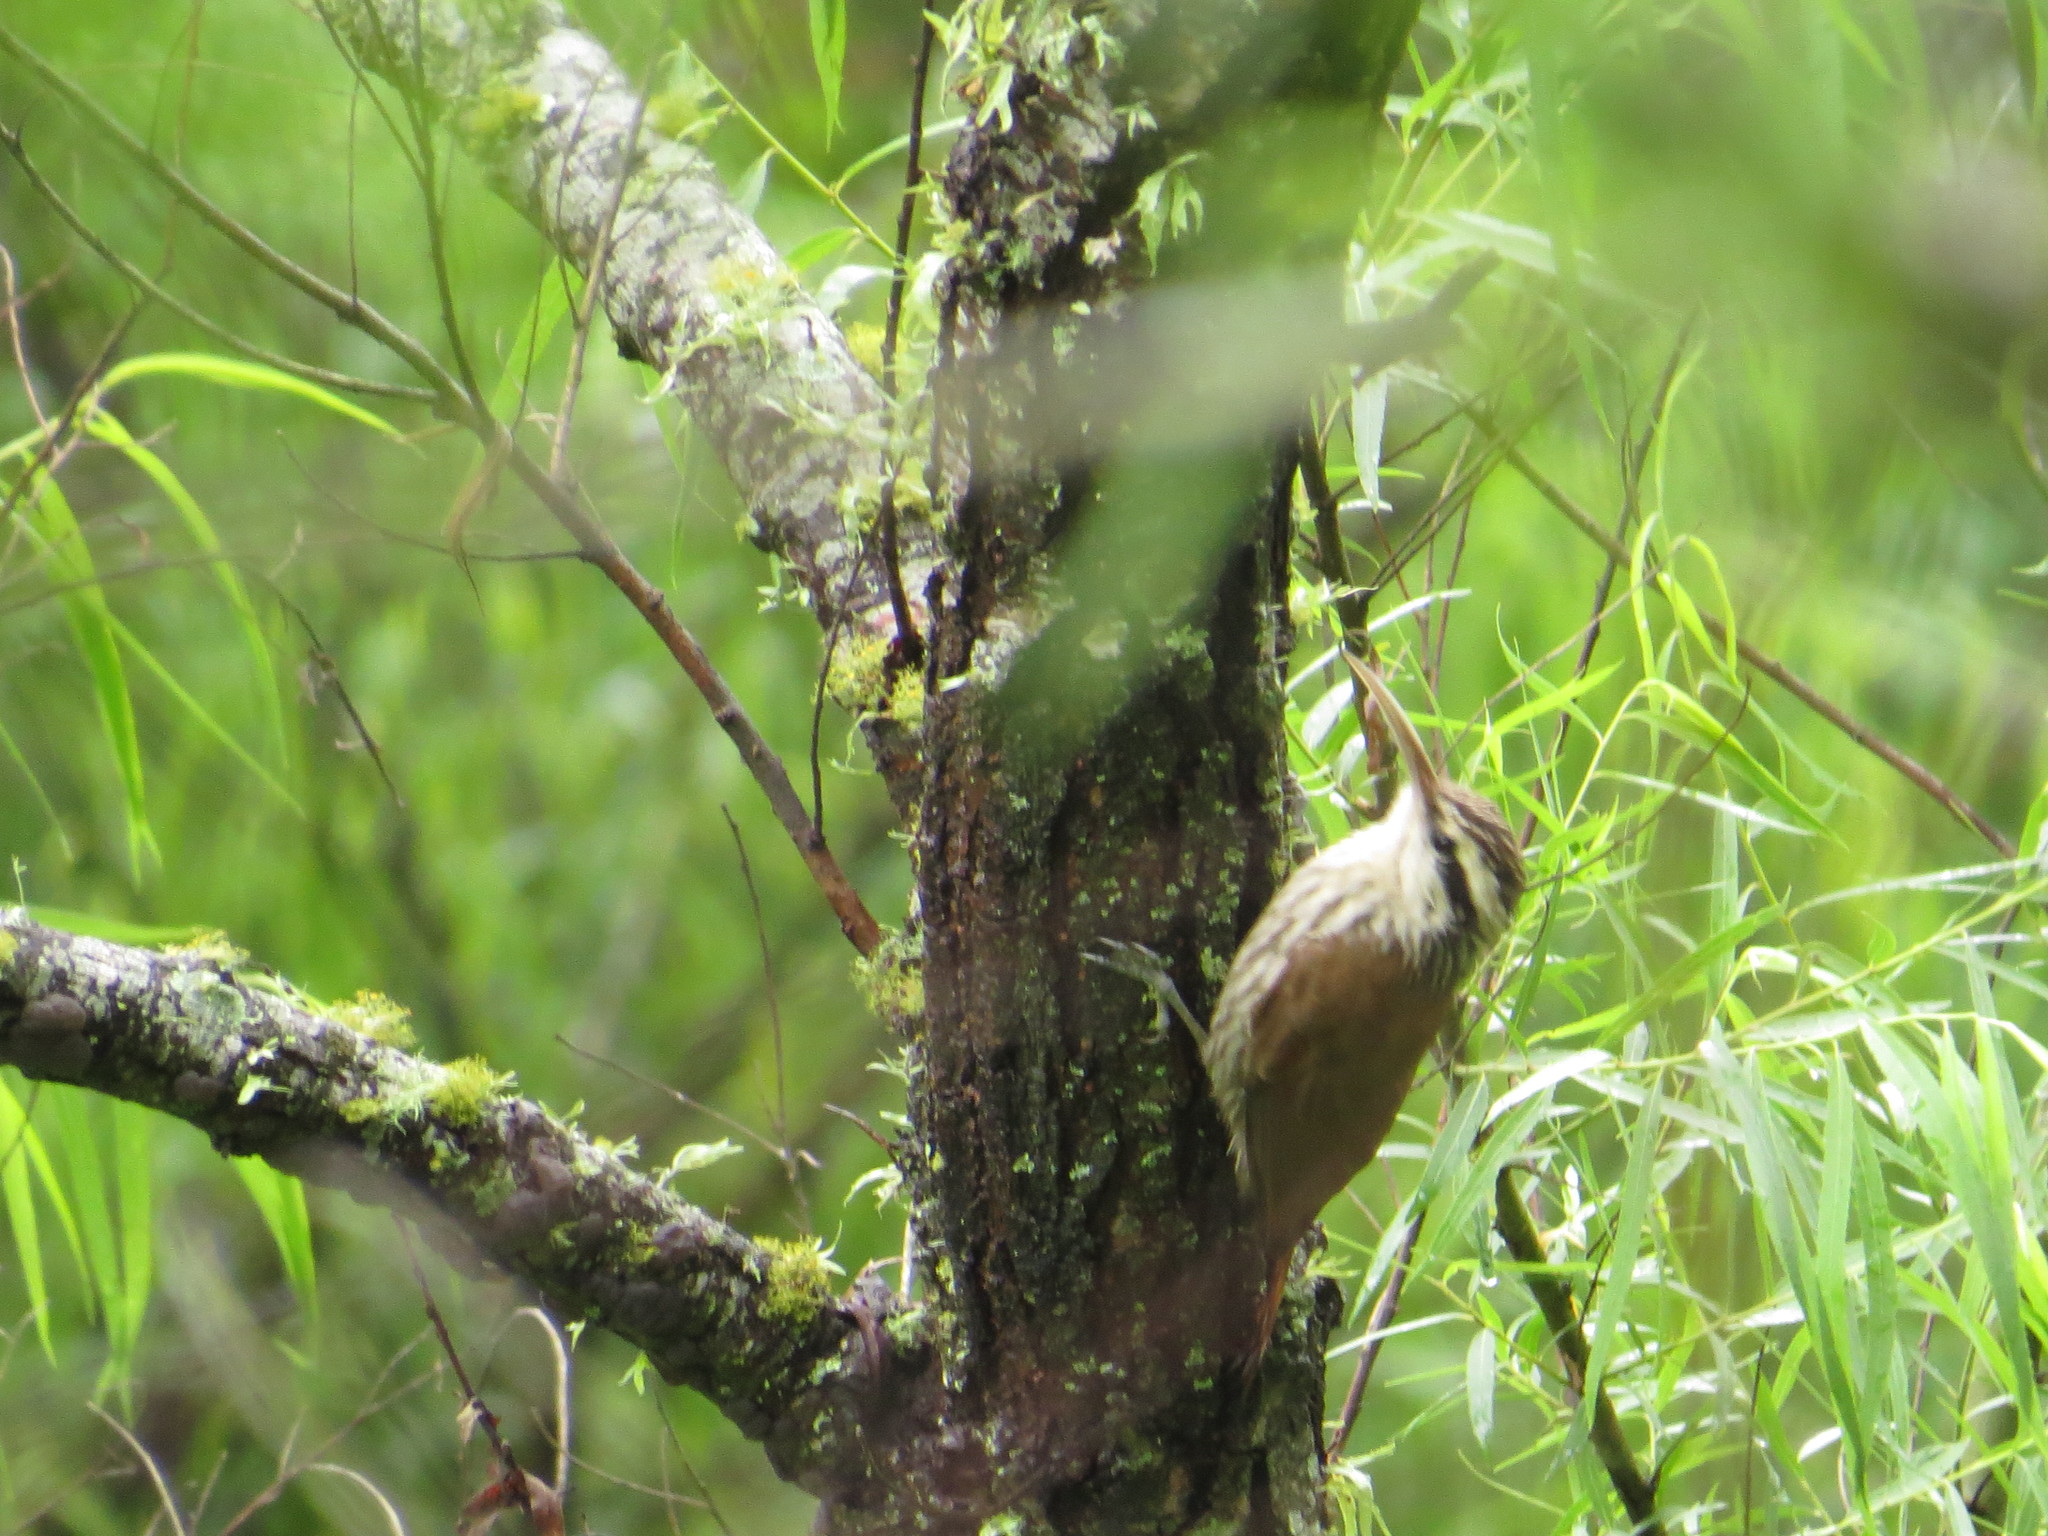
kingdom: Animalia
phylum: Chordata
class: Aves
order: Passeriformes
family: Furnariidae
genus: Lepidocolaptes
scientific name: Lepidocolaptes angustirostris
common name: Narrow-billed woodcreeper
